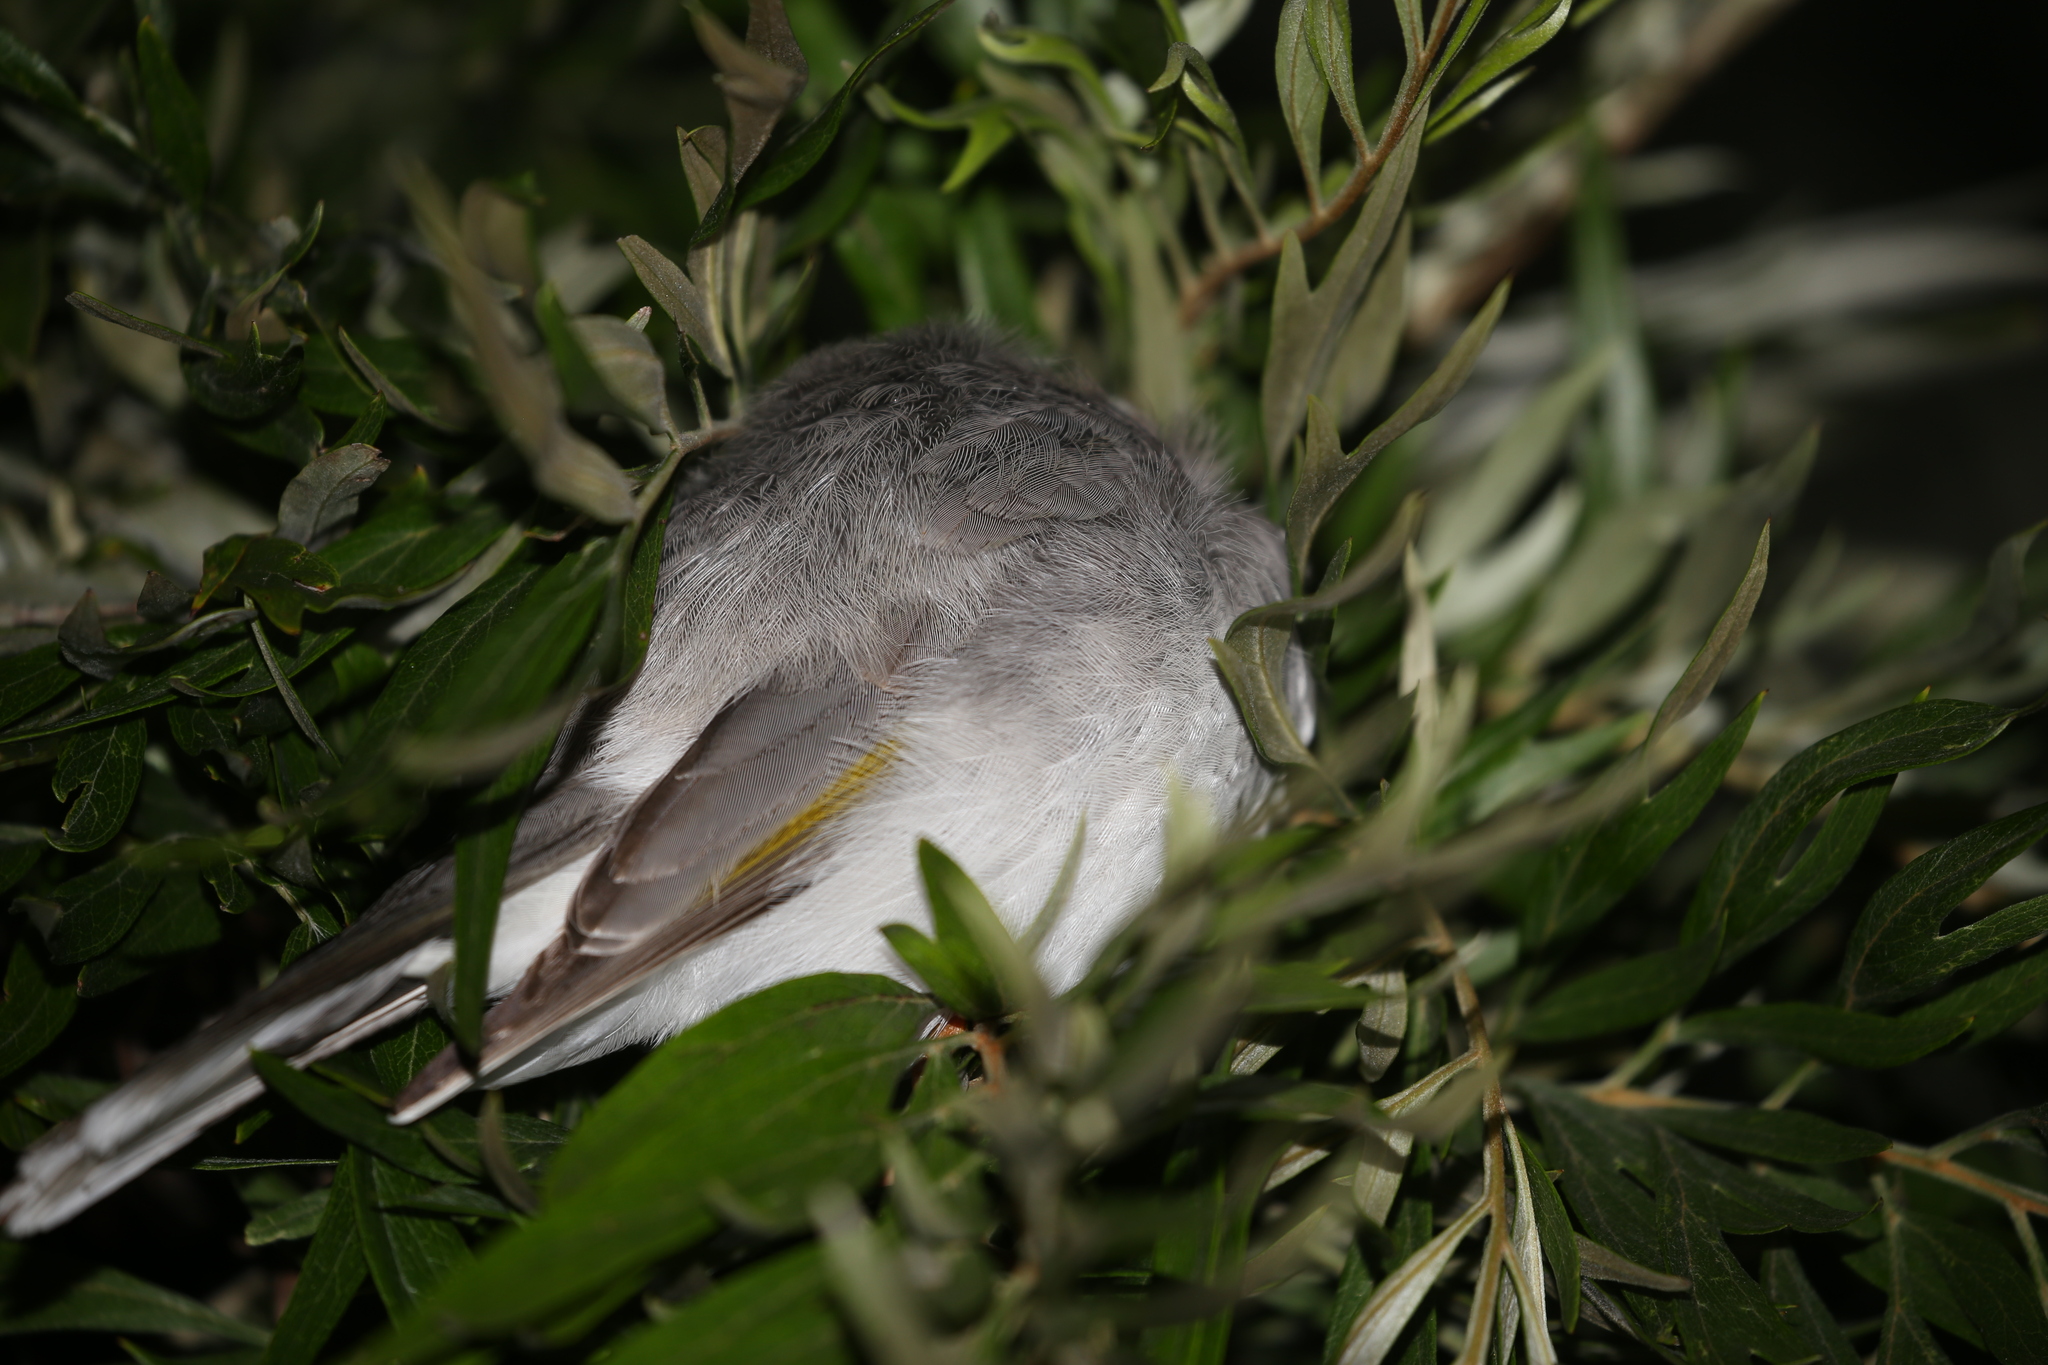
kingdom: Animalia
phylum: Chordata
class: Aves
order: Passeriformes
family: Meliphagidae
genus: Manorina
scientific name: Manorina melanocephala
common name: Noisy miner
